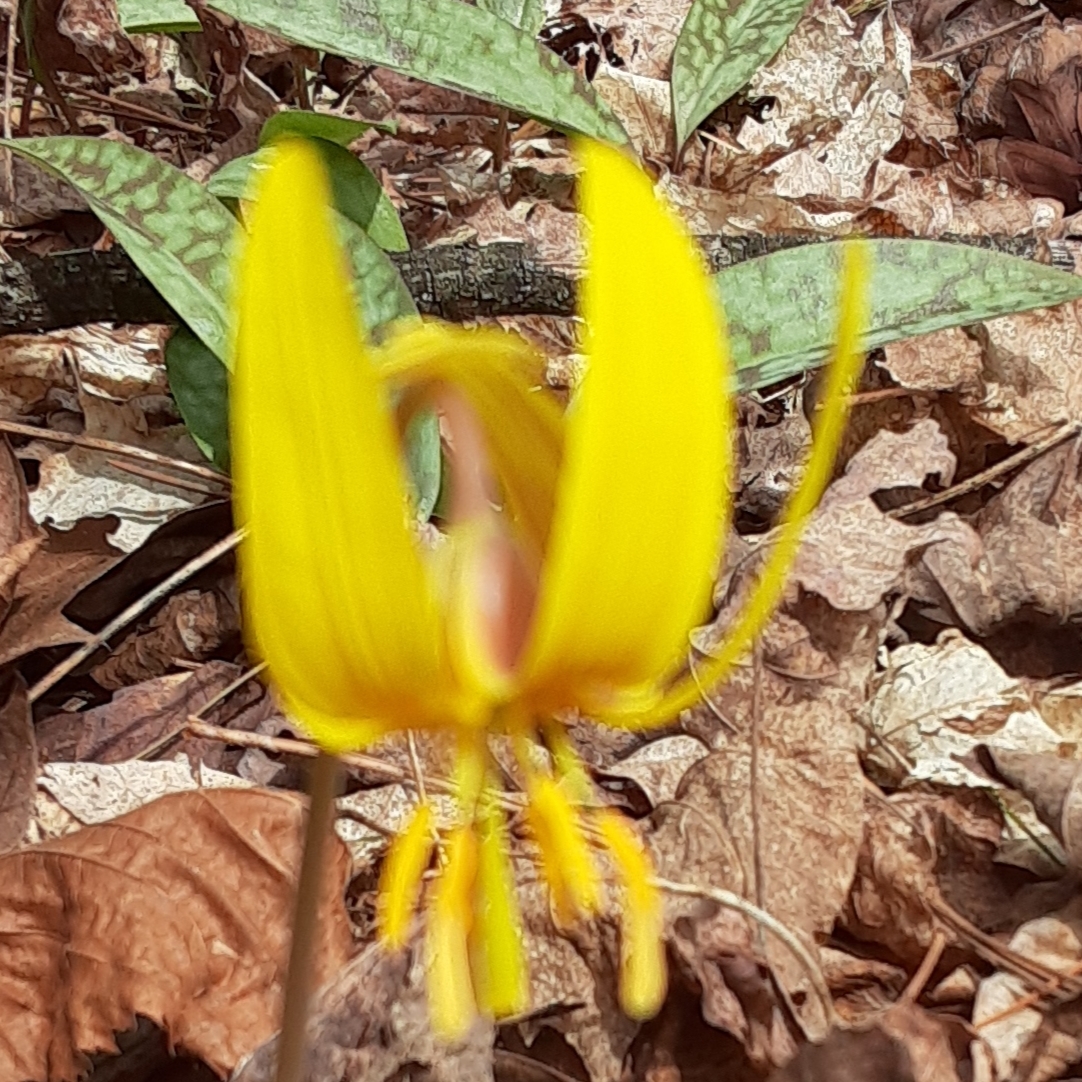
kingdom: Plantae
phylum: Tracheophyta
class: Liliopsida
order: Liliales
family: Liliaceae
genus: Erythronium
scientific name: Erythronium americanum
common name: Yellow adder's-tongue
